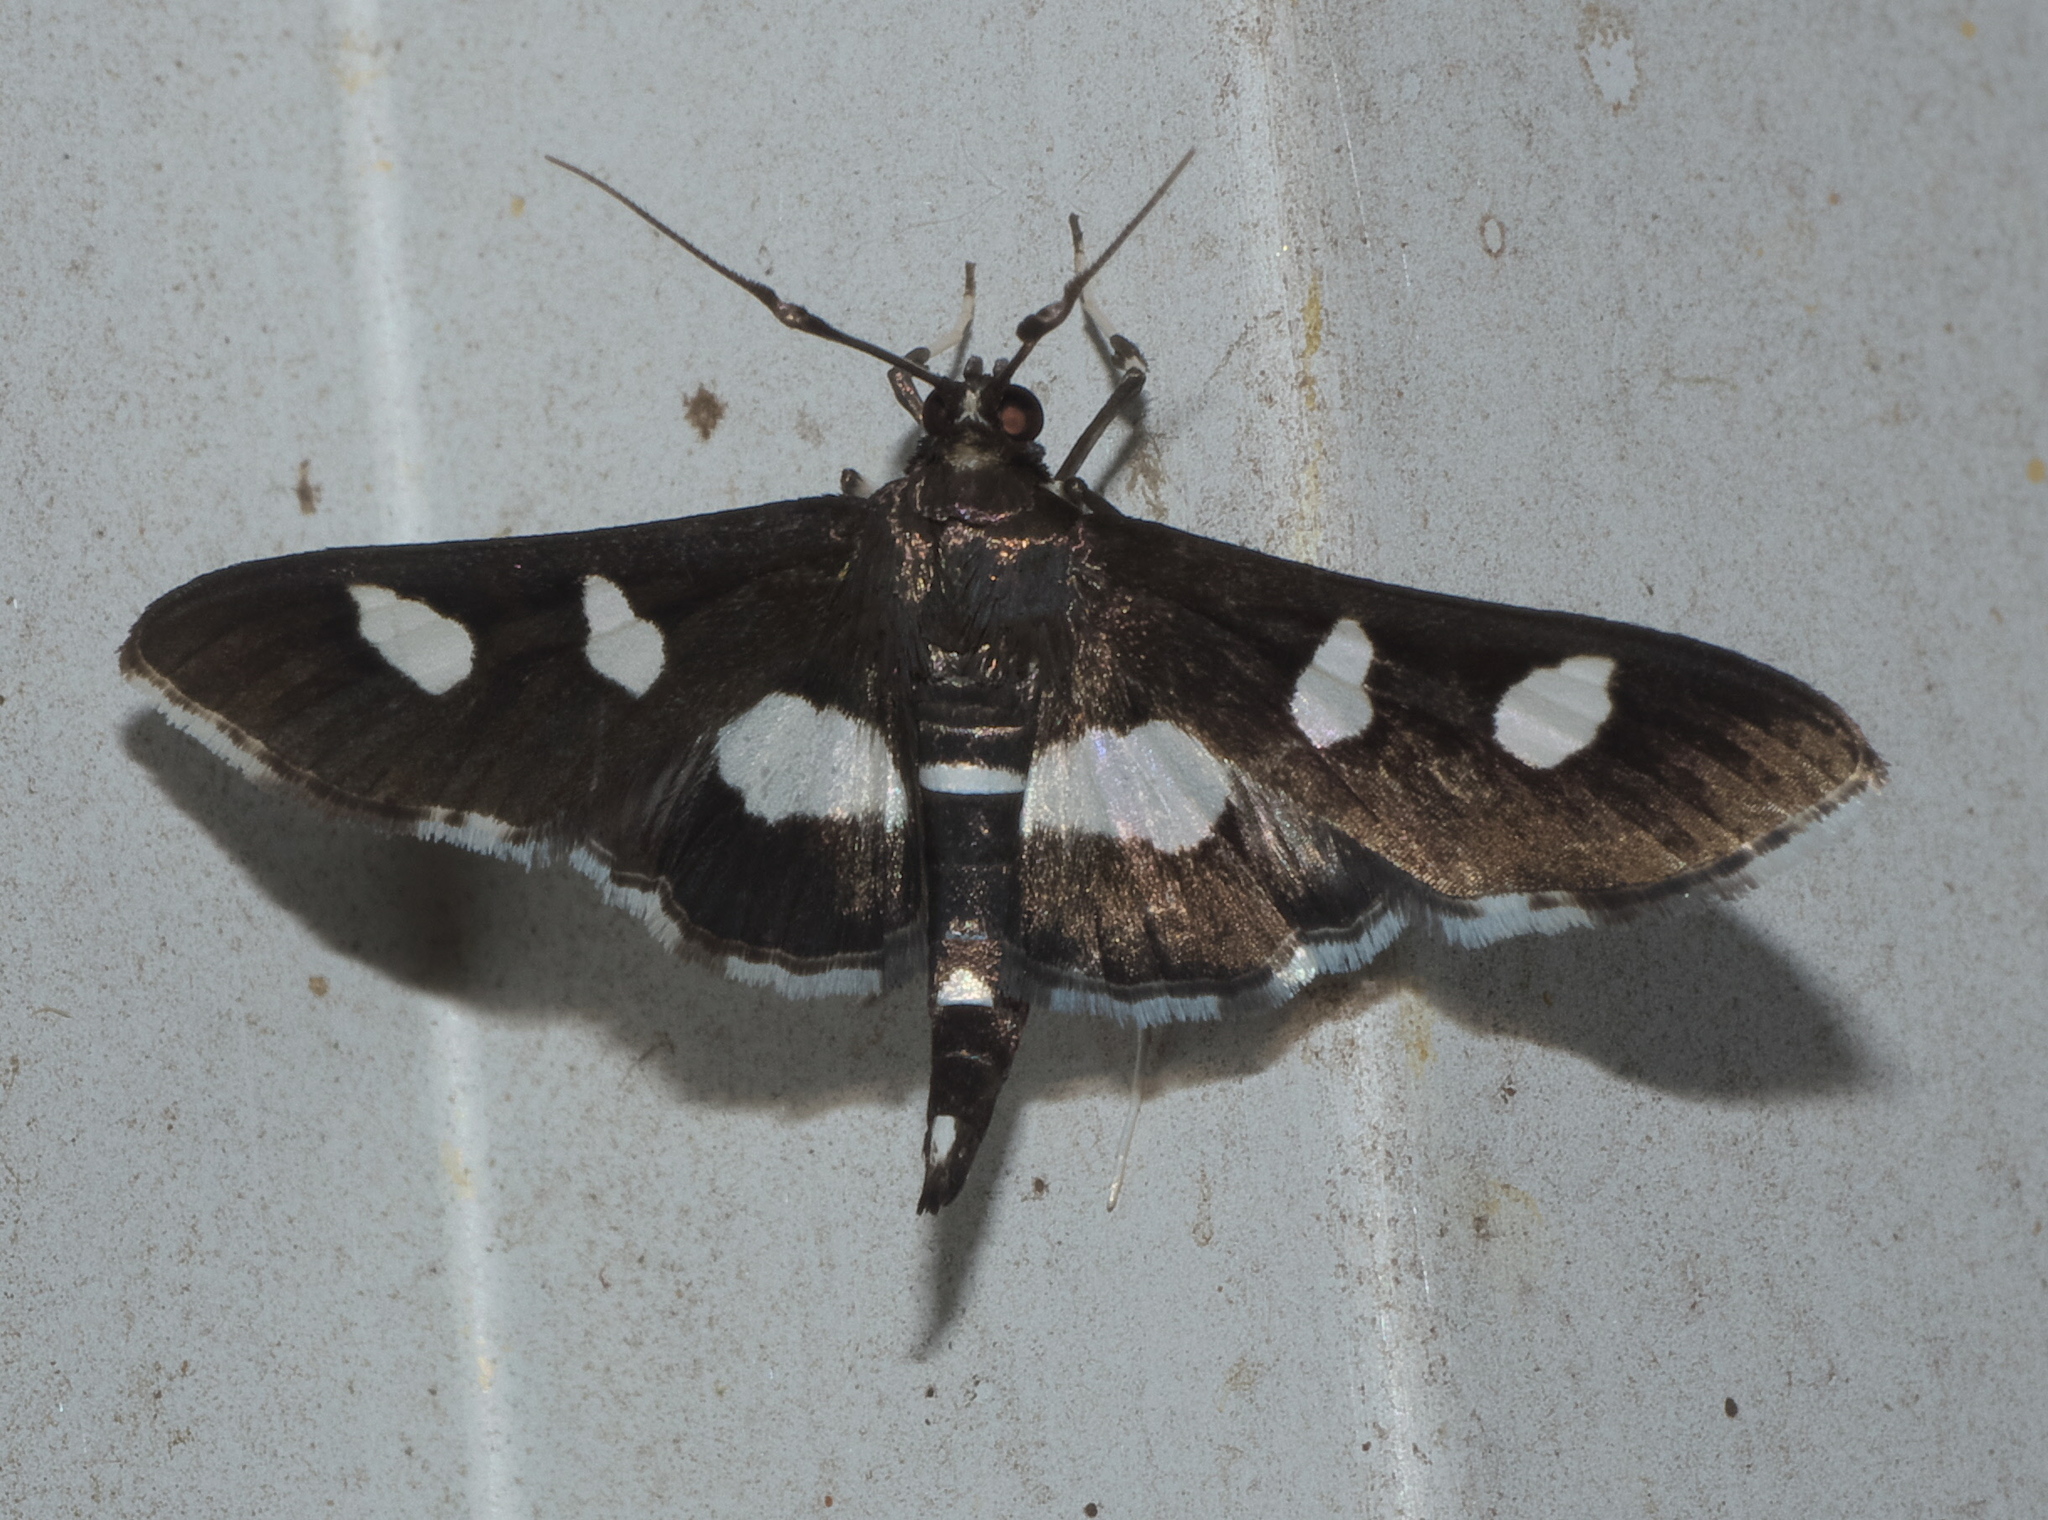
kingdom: Animalia
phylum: Arthropoda
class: Insecta
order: Lepidoptera
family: Crambidae
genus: Desmia
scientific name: Desmia
